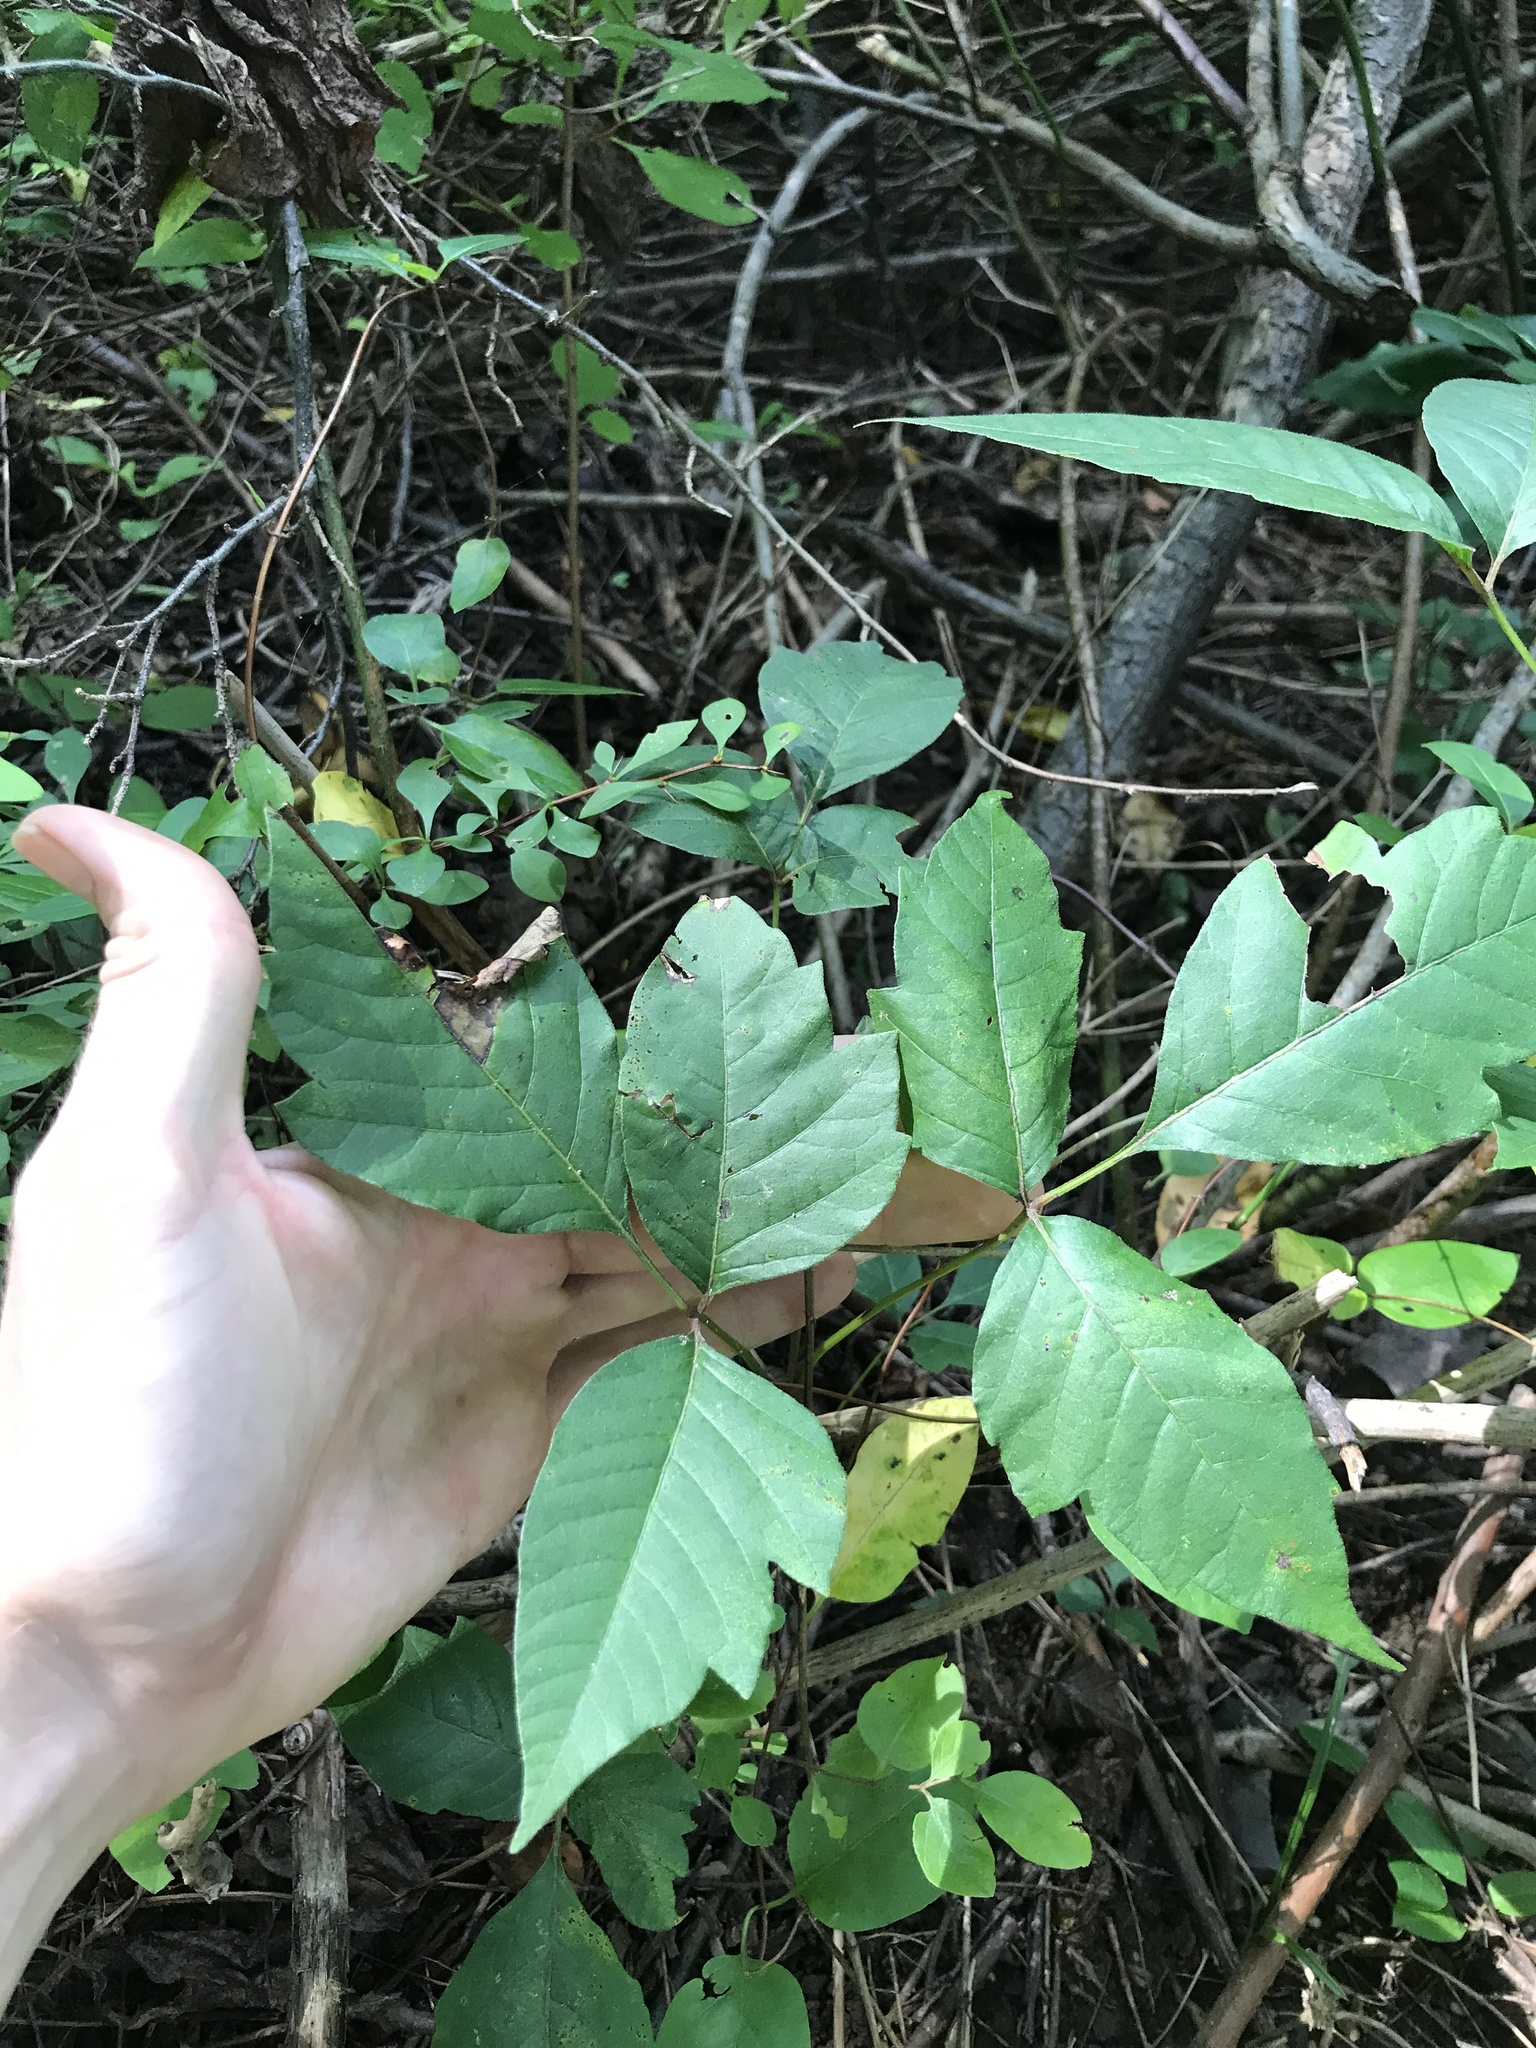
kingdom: Plantae
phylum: Tracheophyta
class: Magnoliopsida
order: Sapindales
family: Anacardiaceae
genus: Toxicodendron
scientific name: Toxicodendron radicans
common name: Poison ivy
